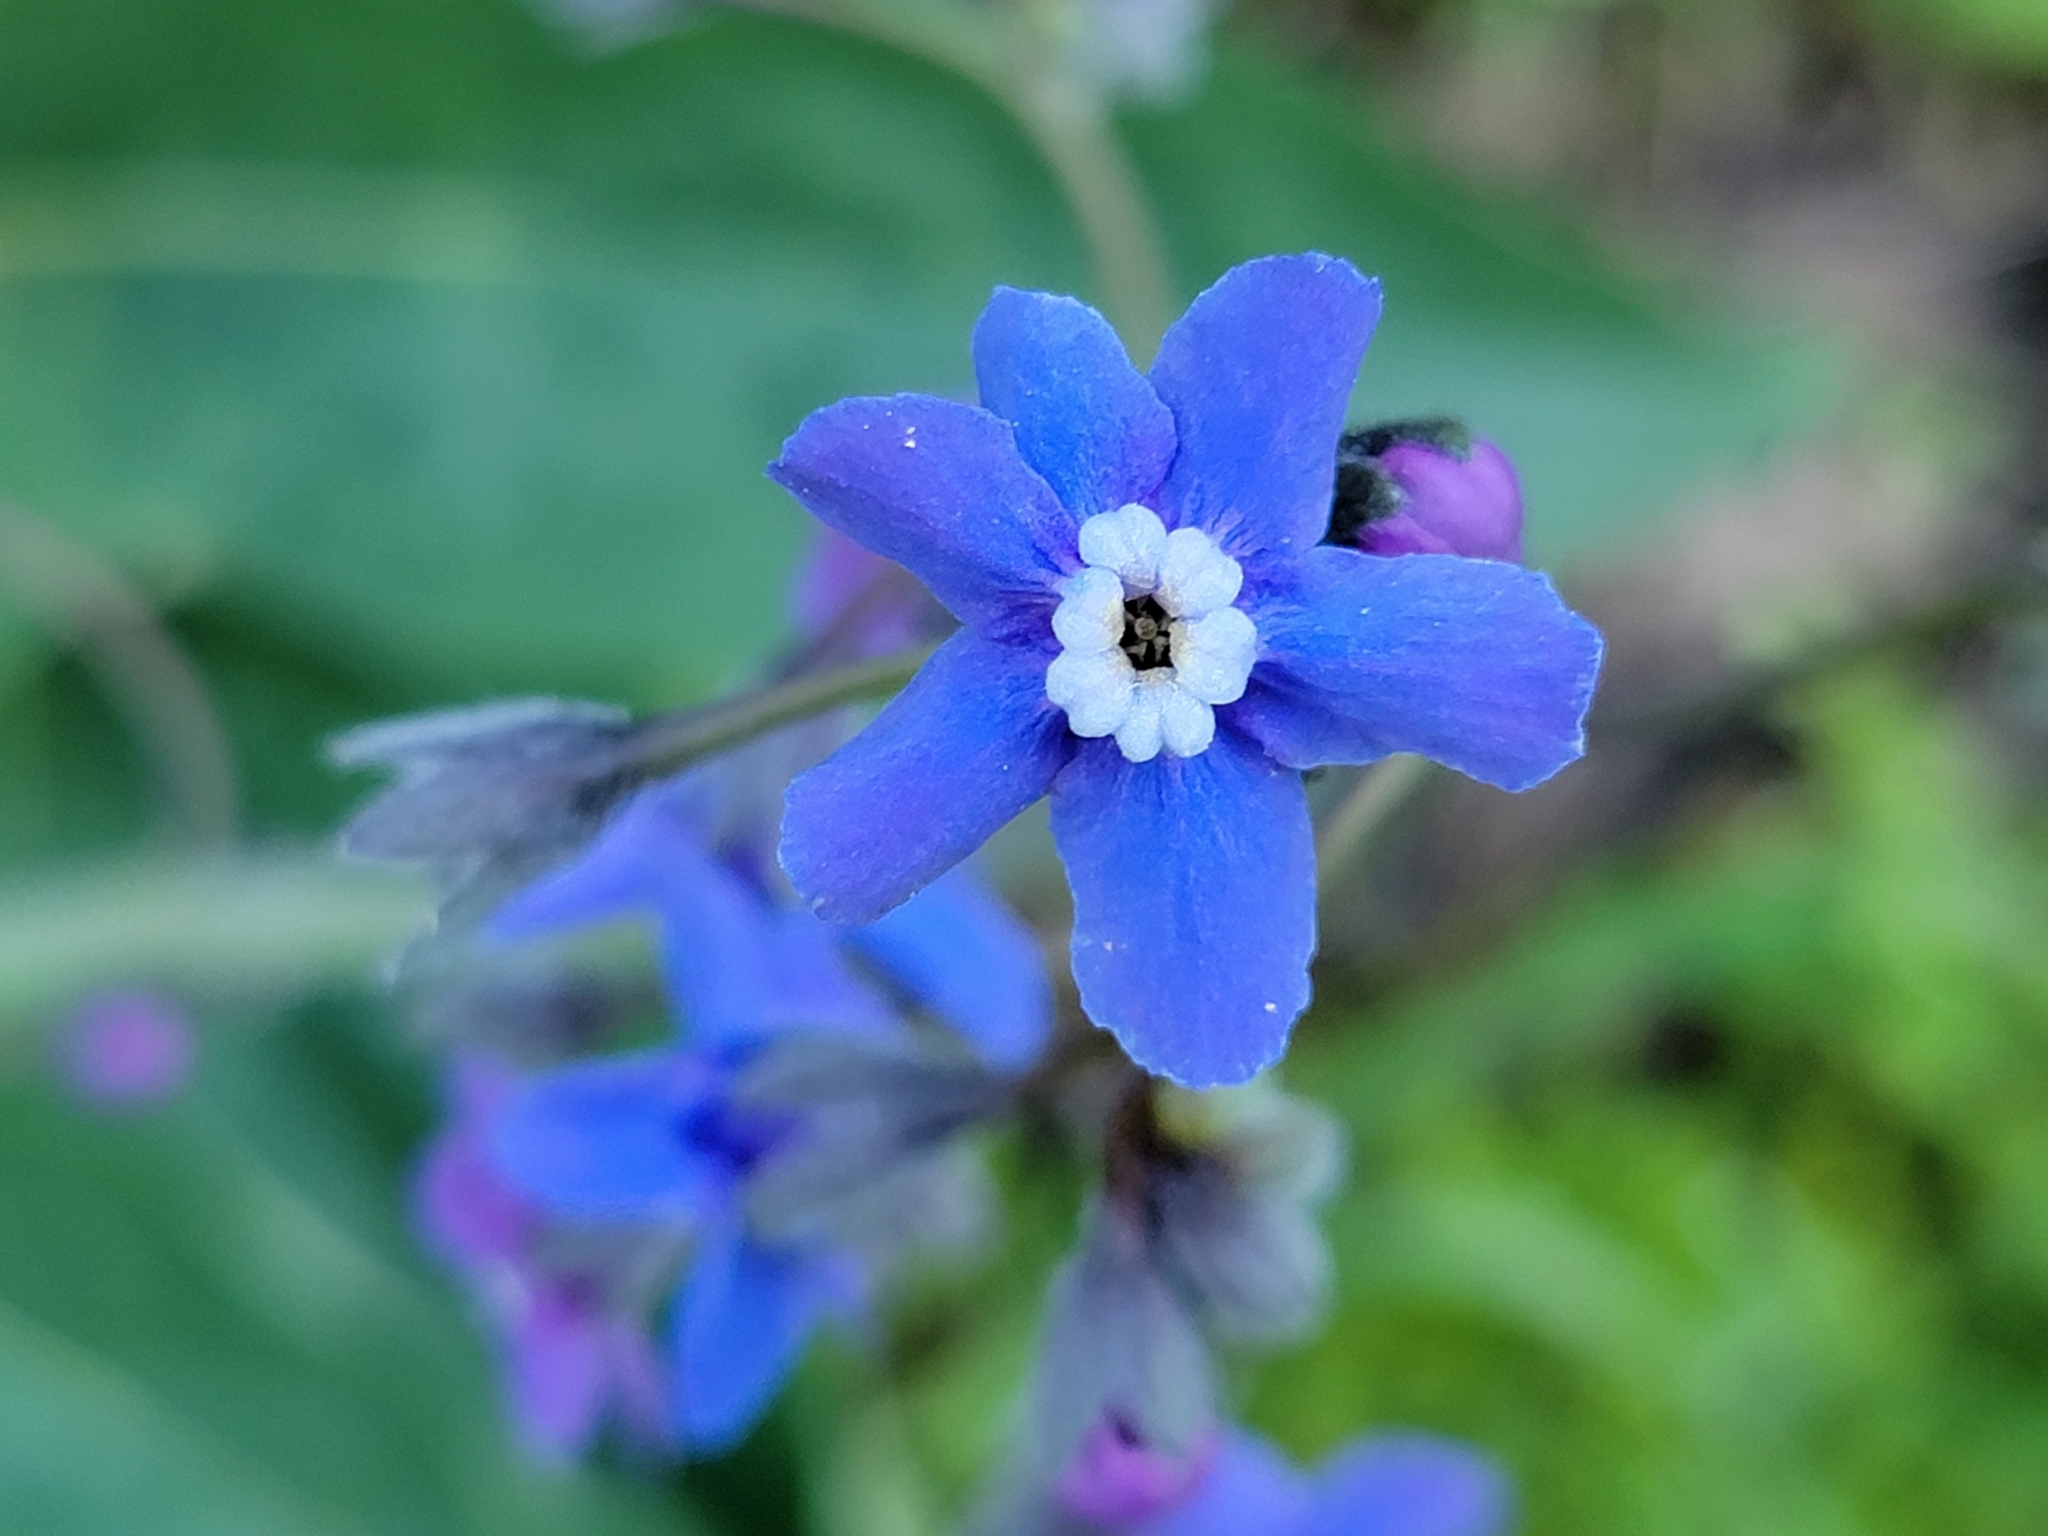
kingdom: Plantae
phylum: Tracheophyta
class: Magnoliopsida
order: Boraginales
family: Boraginaceae
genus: Adelinia
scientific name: Adelinia grande
